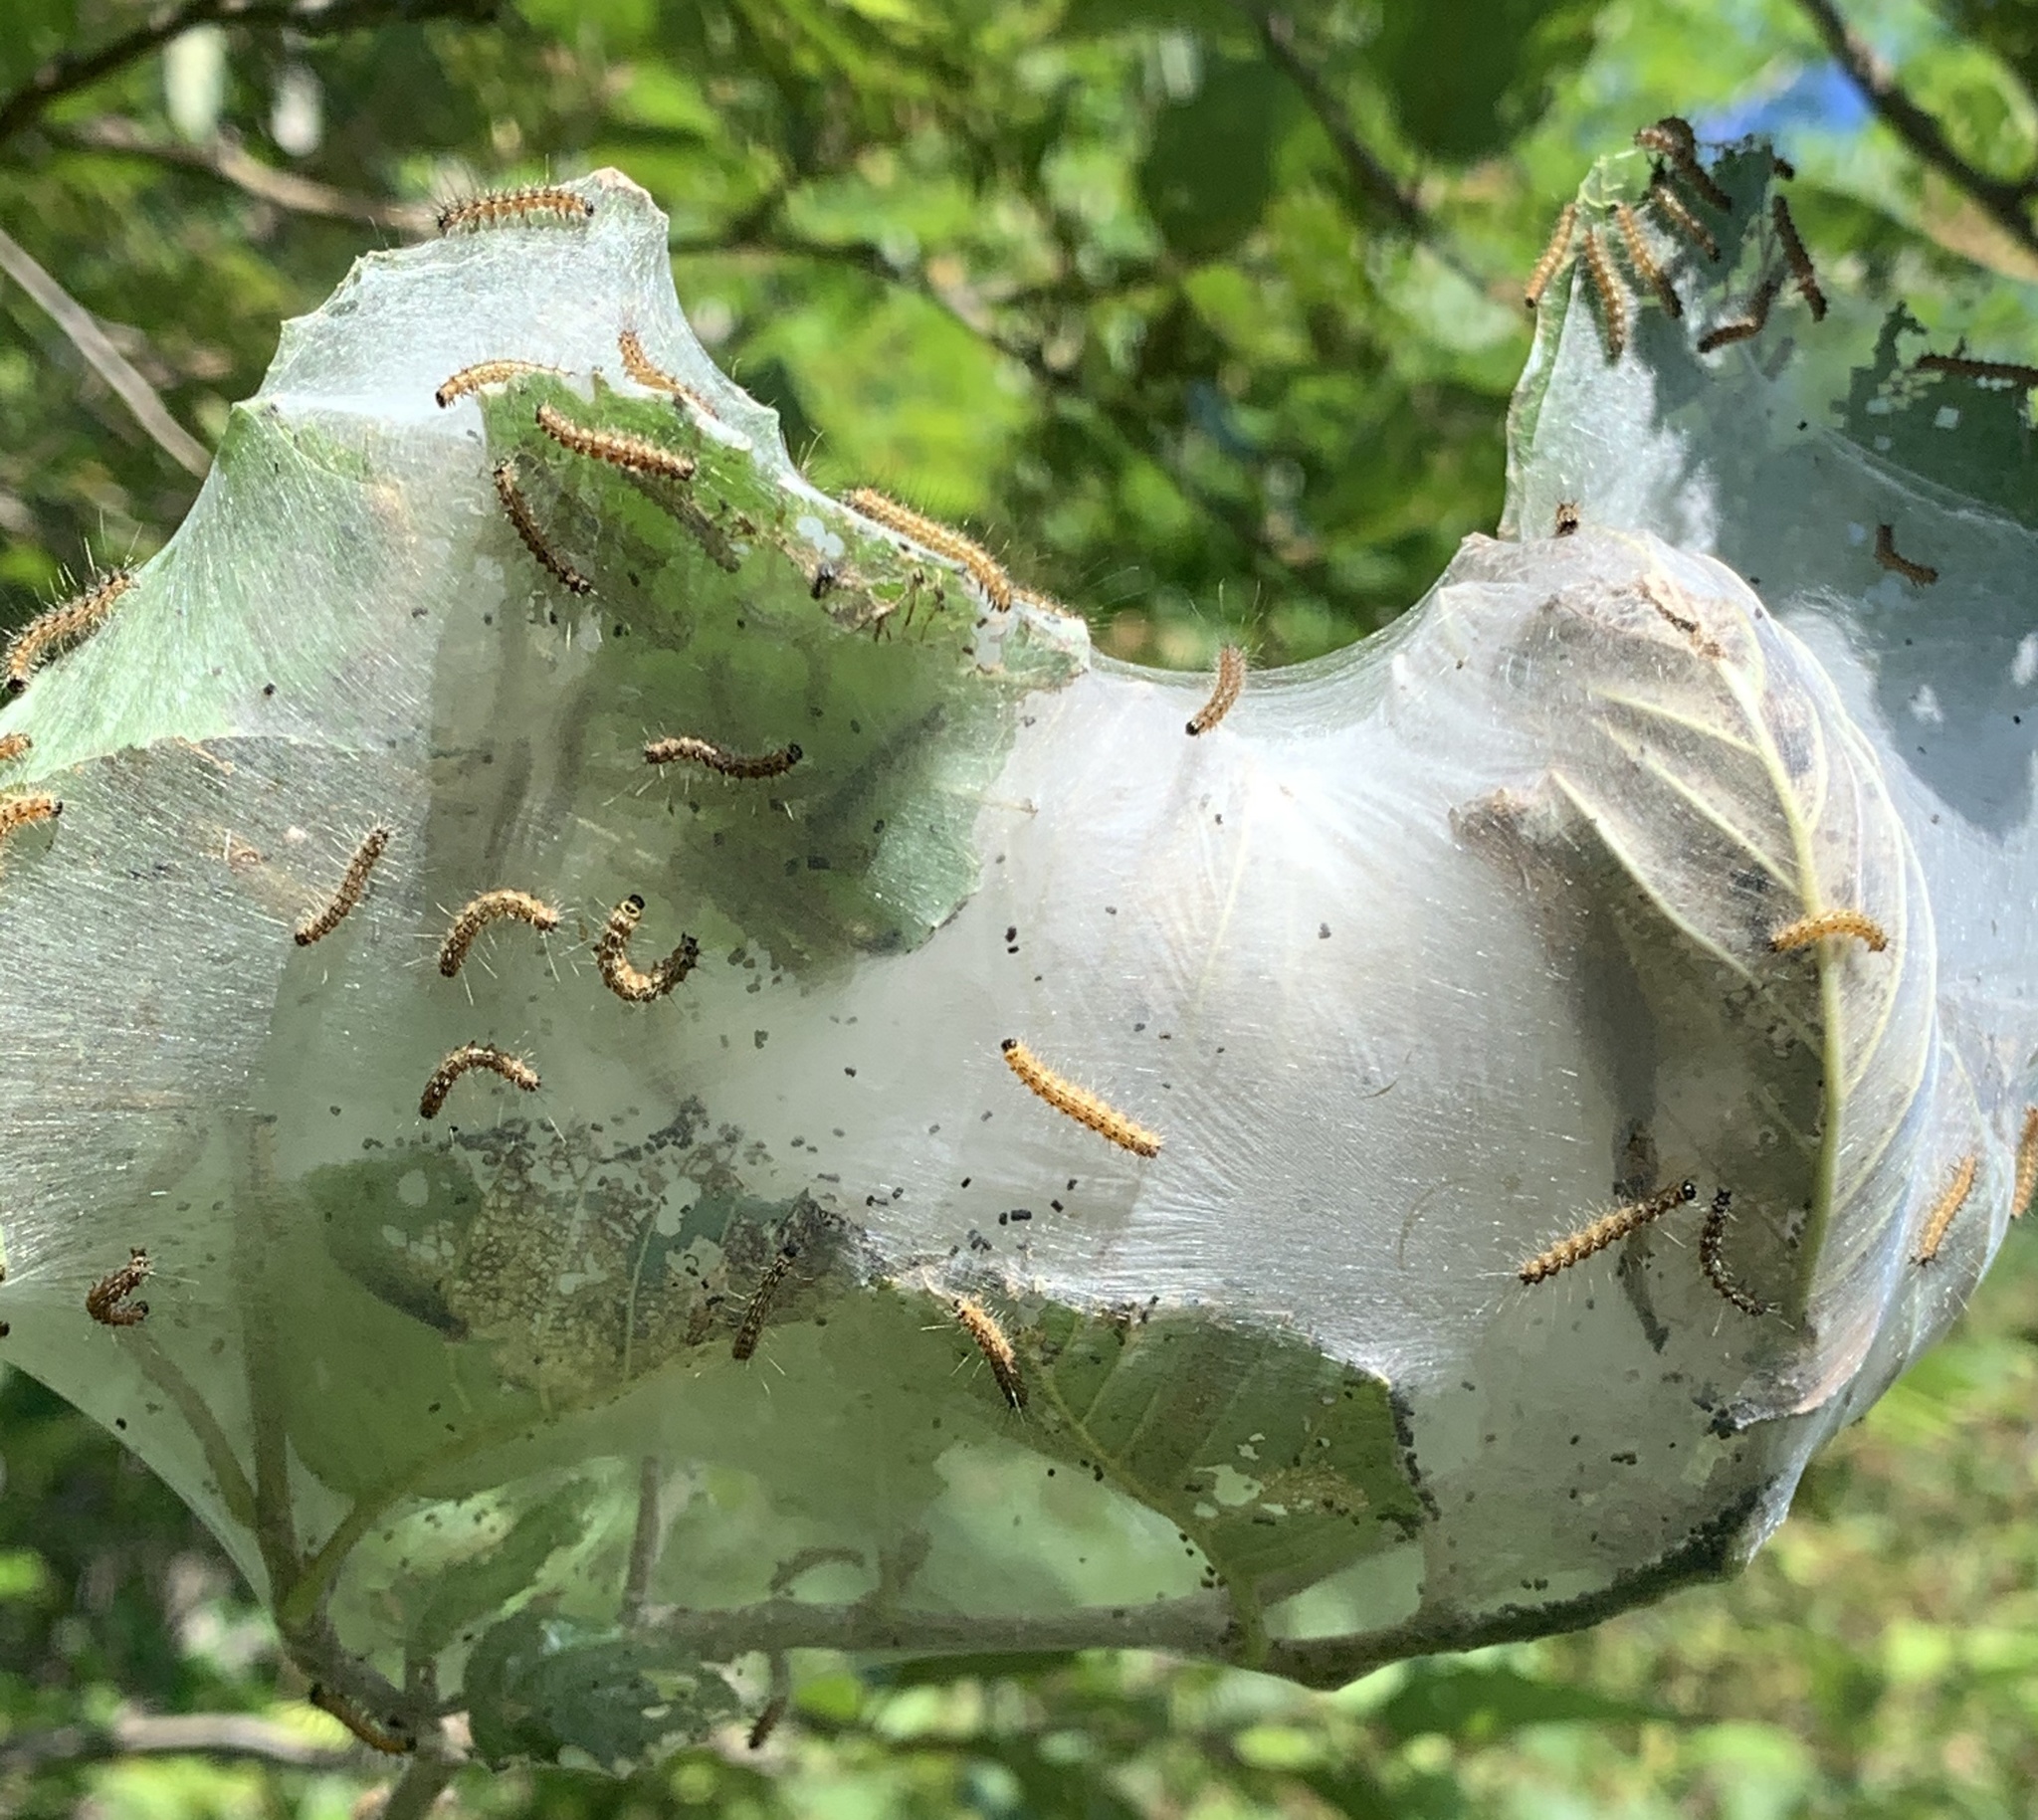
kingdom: Animalia
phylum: Arthropoda
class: Insecta
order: Lepidoptera
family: Erebidae
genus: Hyphantria
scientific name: Hyphantria cunea
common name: American white moth
